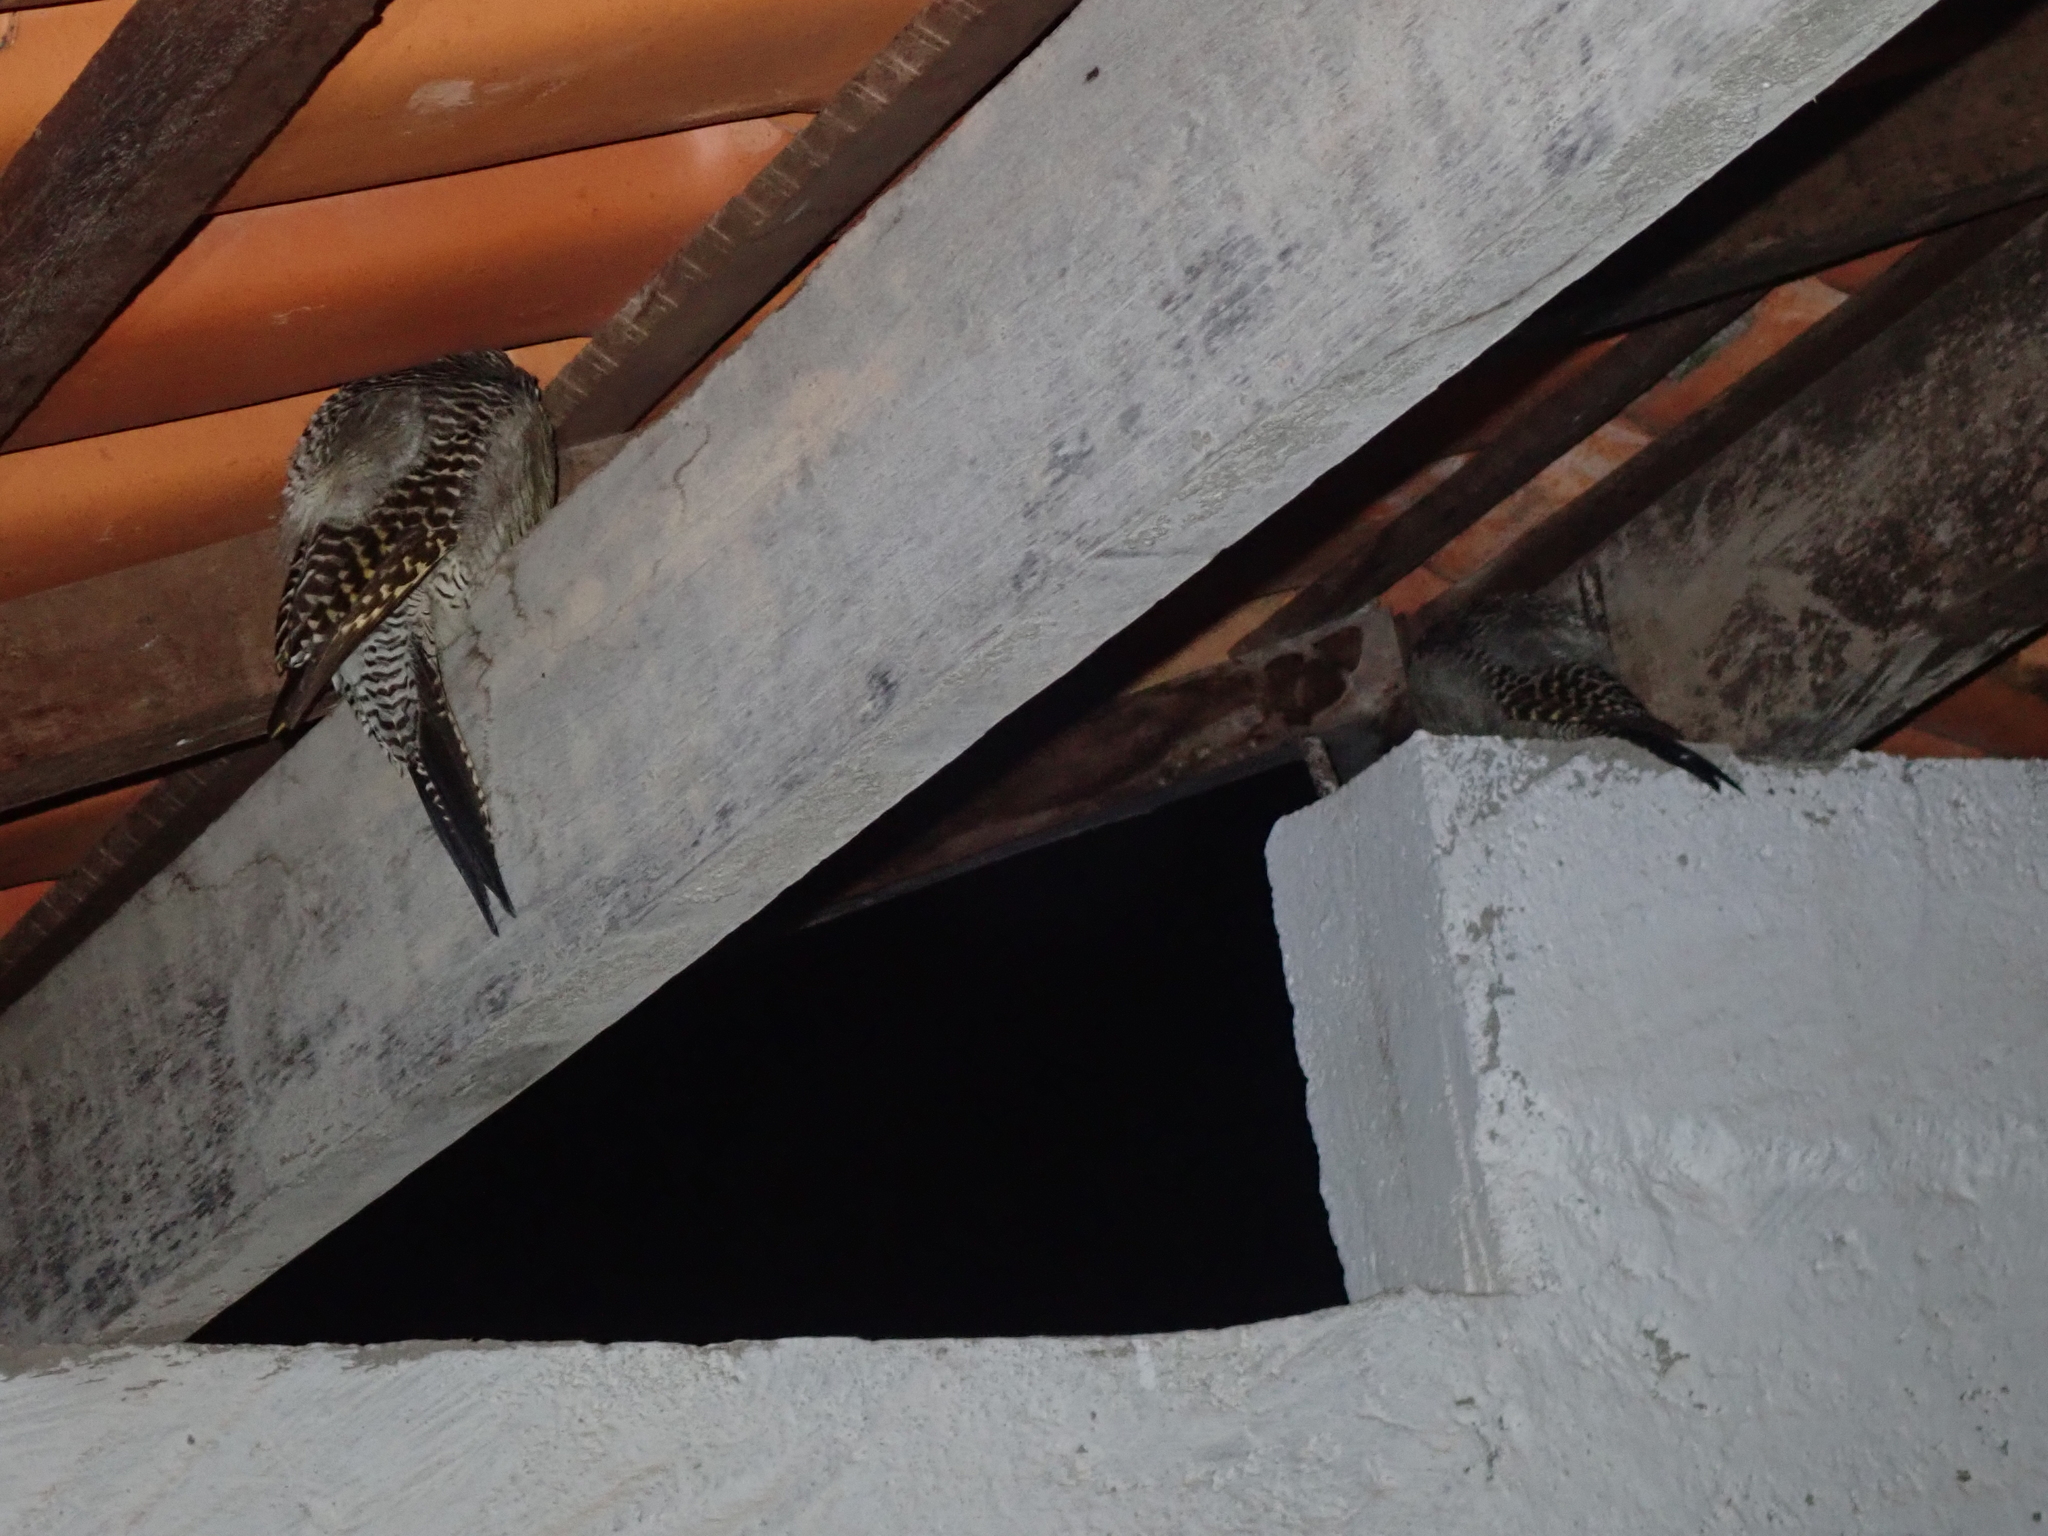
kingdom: Animalia
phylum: Chordata
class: Aves
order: Piciformes
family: Picidae
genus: Colaptes
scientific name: Colaptes campestris
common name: Campo flicker
